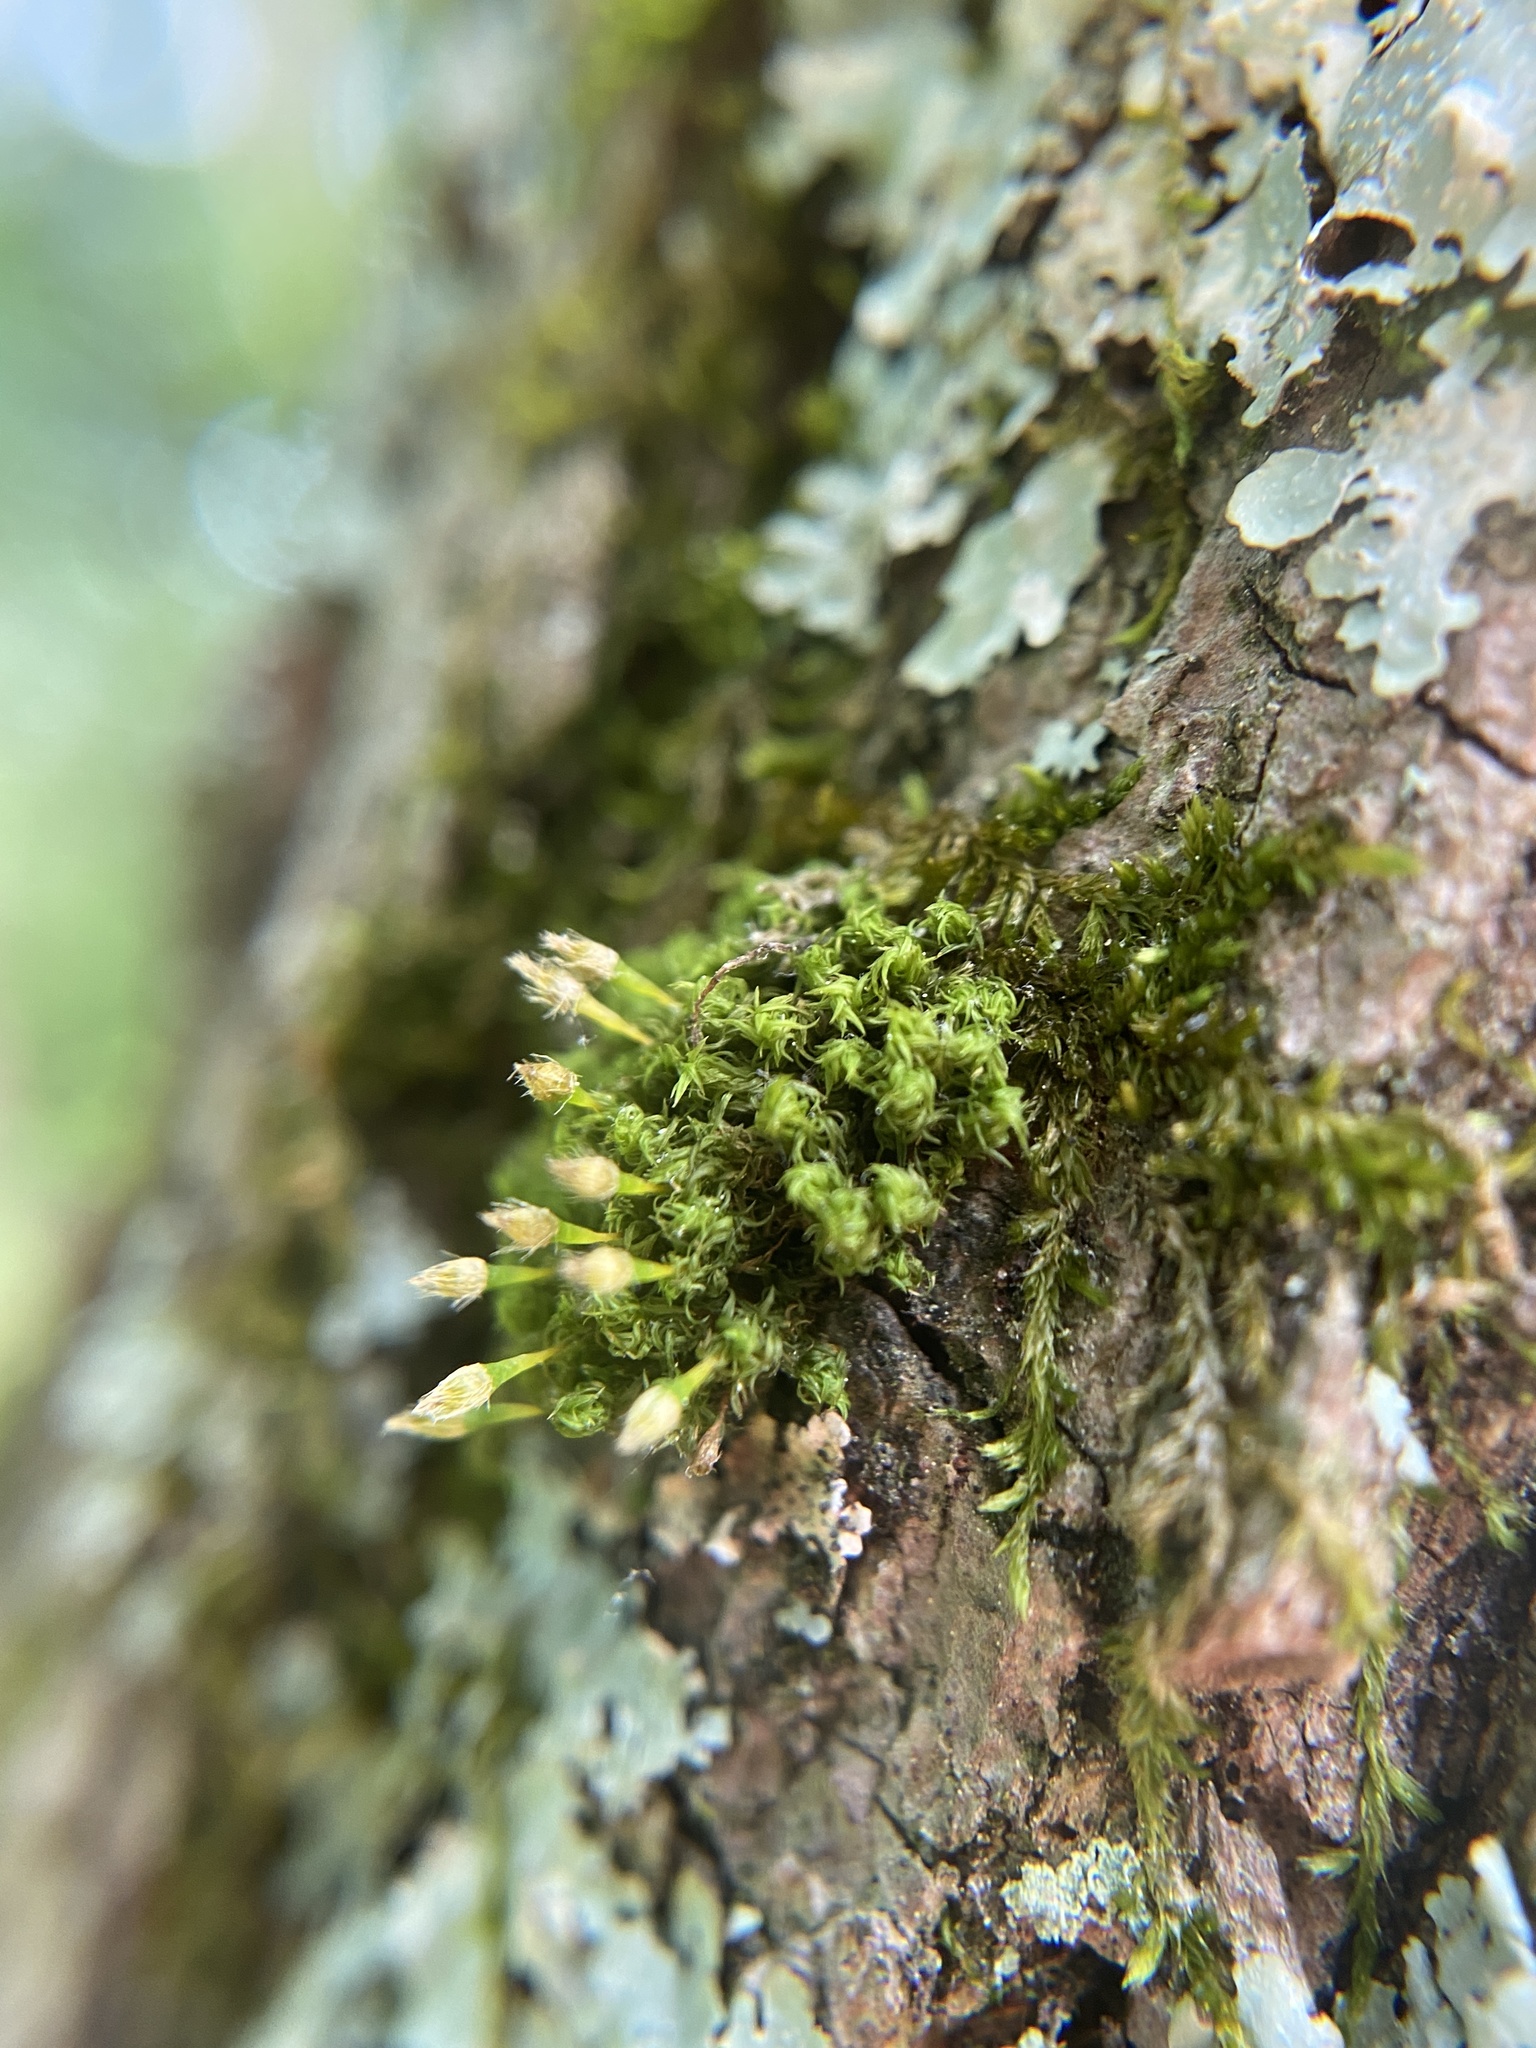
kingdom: Plantae
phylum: Bryophyta
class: Bryopsida
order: Orthotrichales
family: Orthotrichaceae
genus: Ulota
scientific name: Ulota crispa
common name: Crisped pincushion moss
